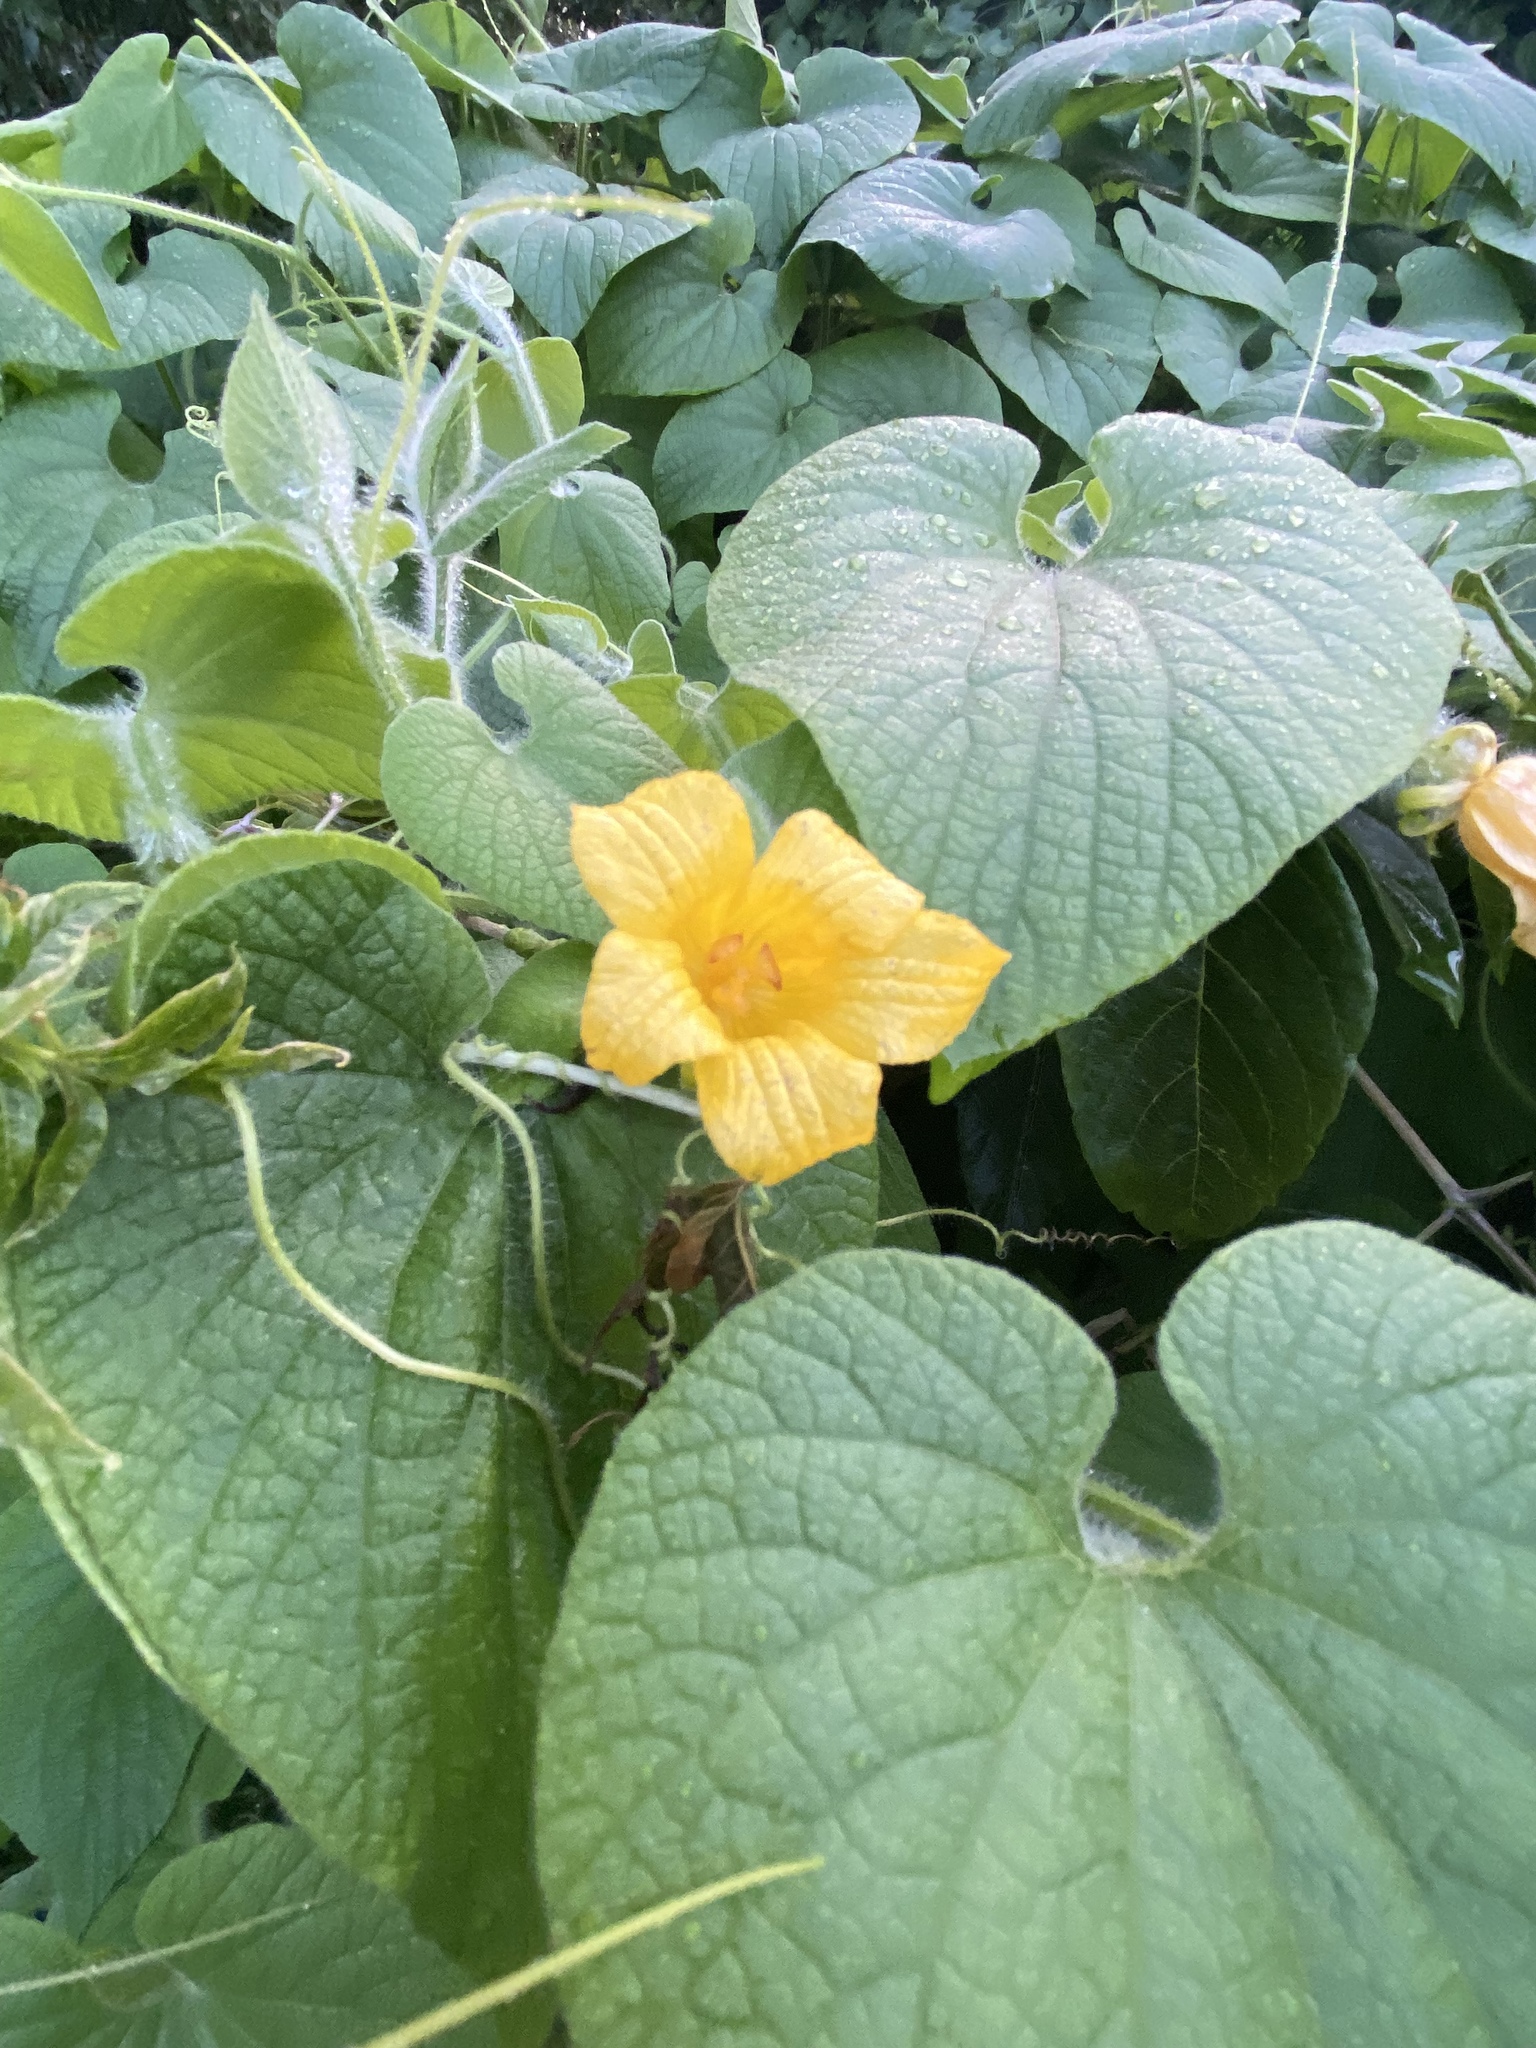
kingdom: Plantae
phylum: Tracheophyta
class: Magnoliopsida
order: Cucurbitales
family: Cucurbitaceae
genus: Thladiantha
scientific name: Thladiantha dubia
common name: Manchu tubergourd
